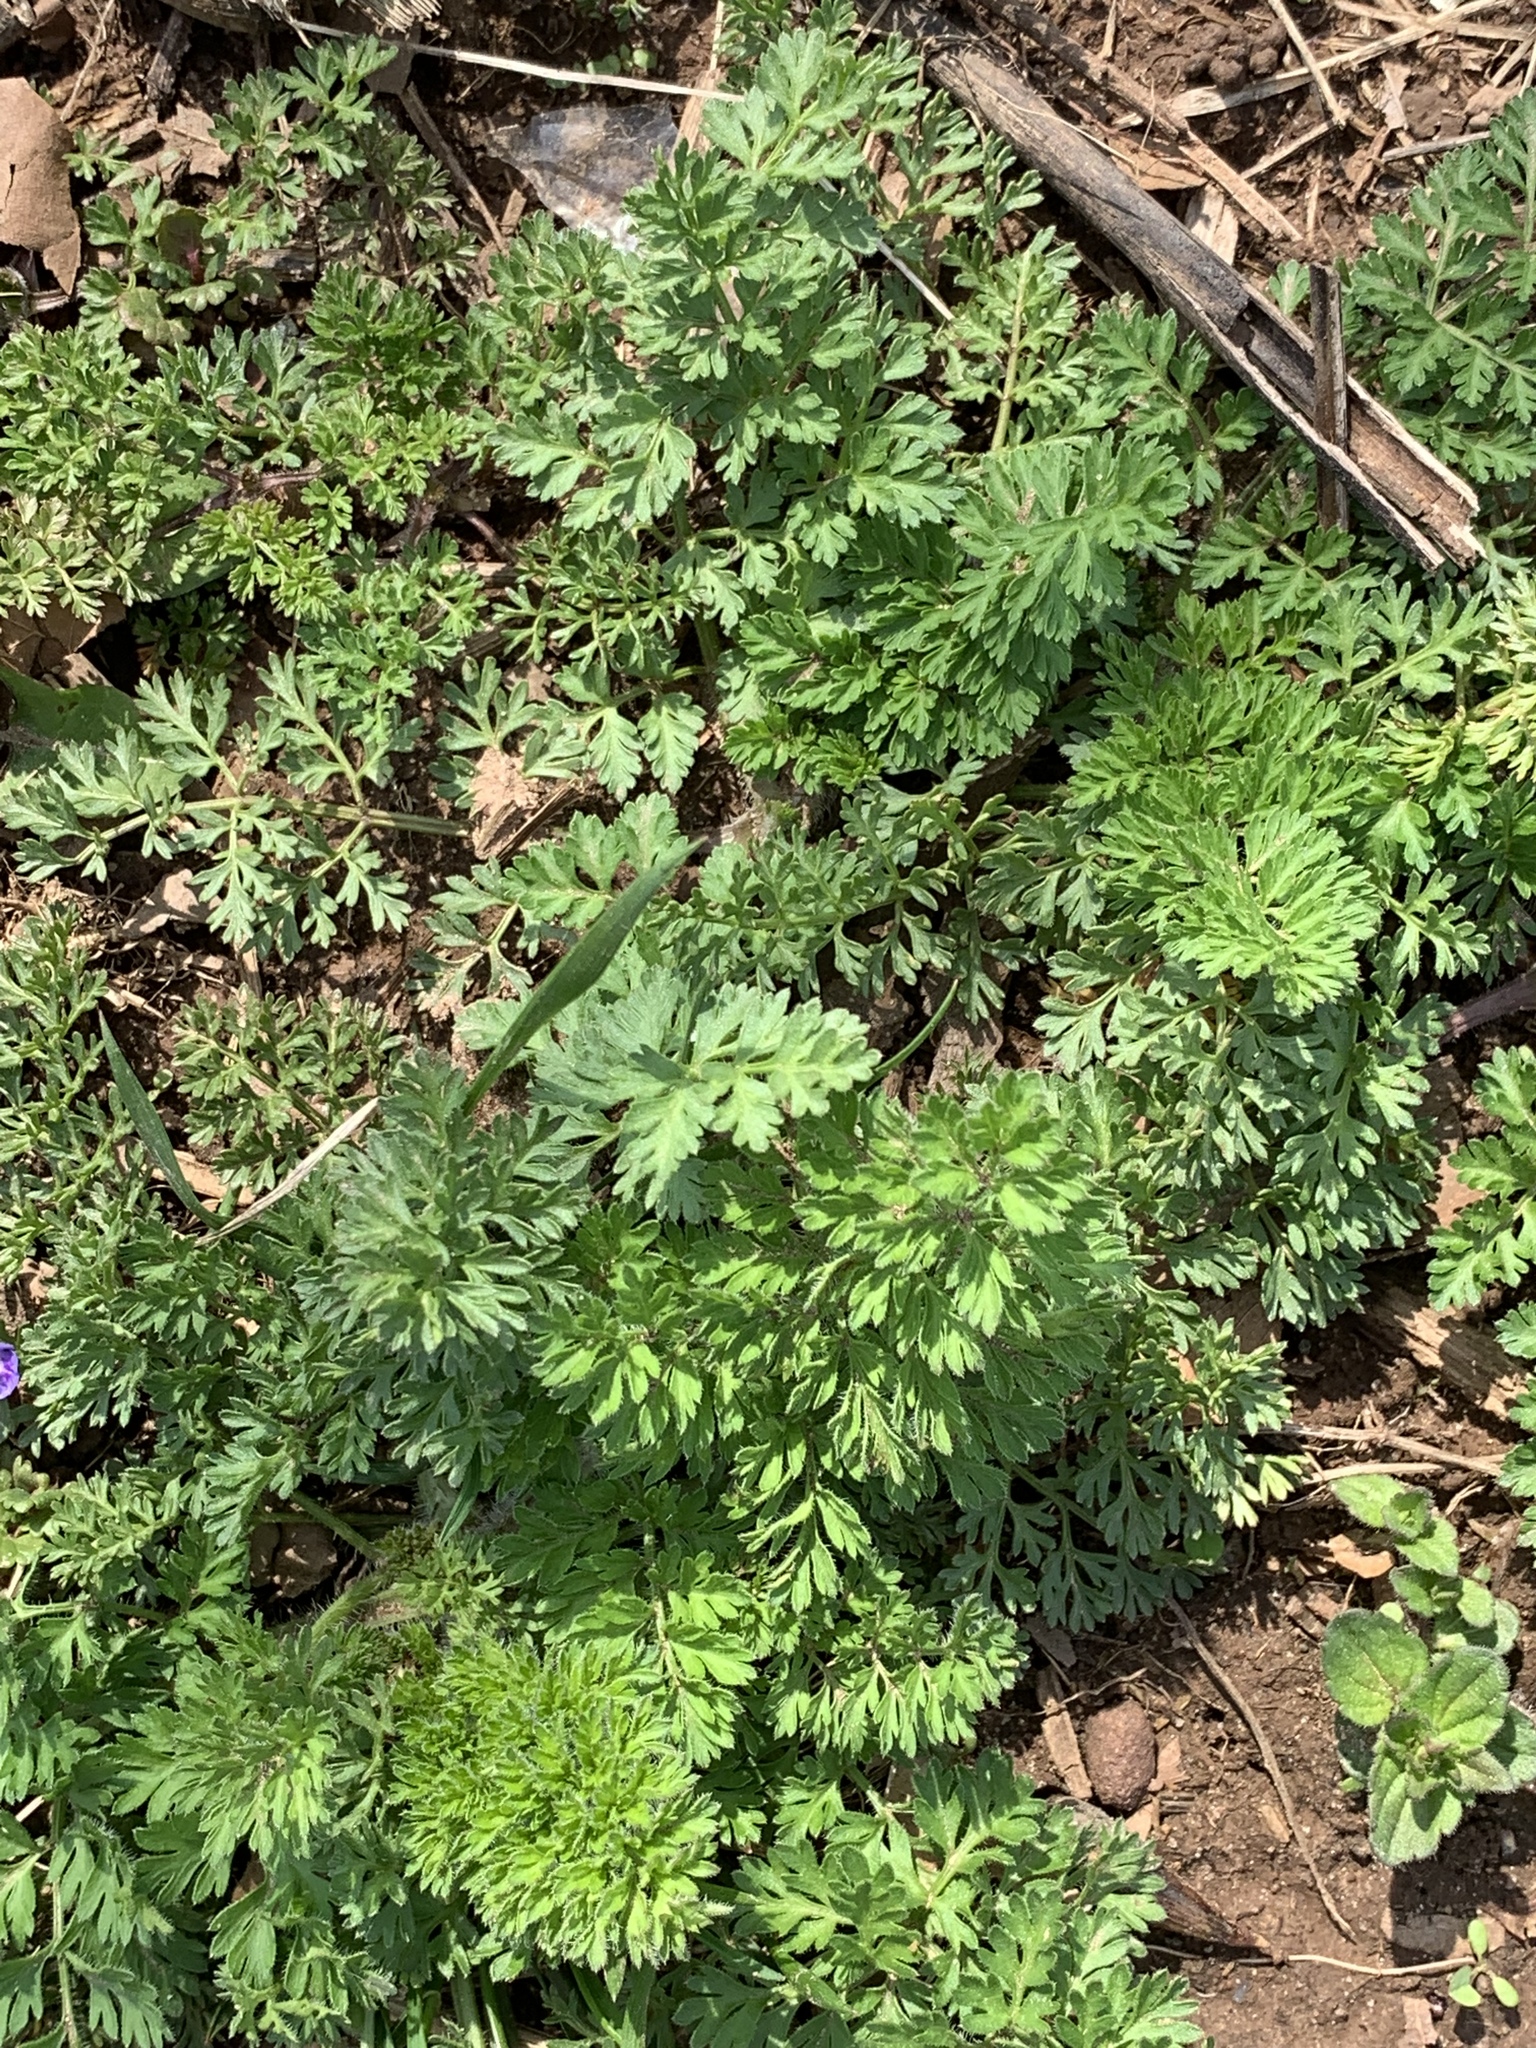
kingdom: Plantae
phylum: Tracheophyta
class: Magnoliopsida
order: Apiales
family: Apiaceae
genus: Daucus
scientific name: Daucus carota
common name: Wild carrot
